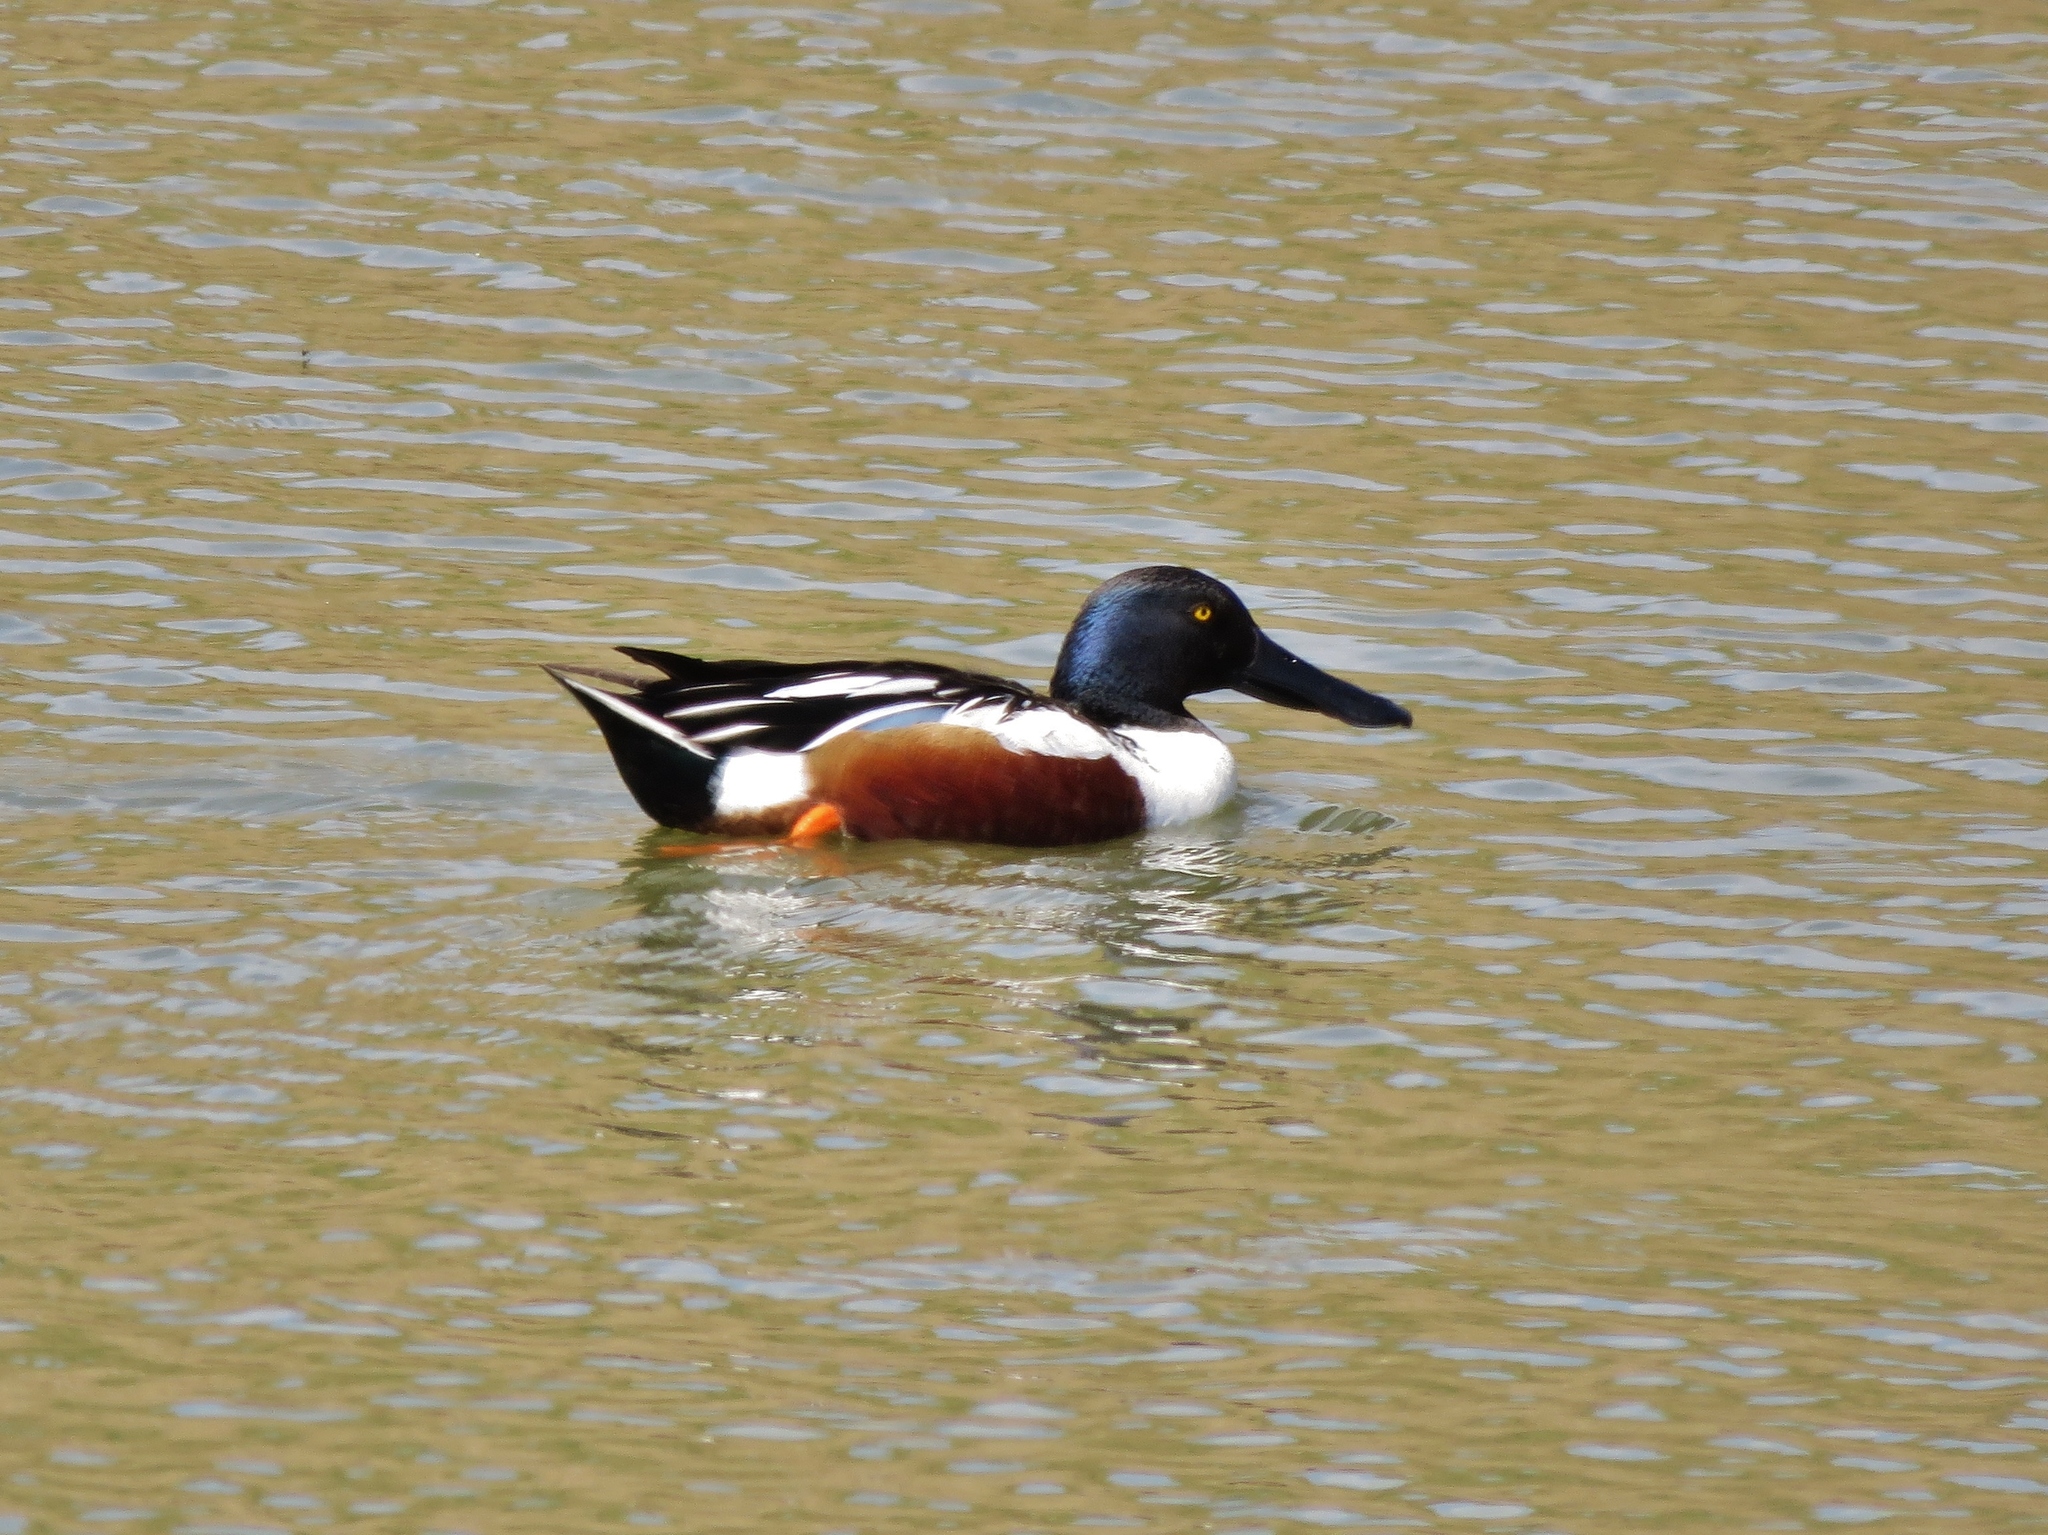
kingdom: Animalia
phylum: Chordata
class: Aves
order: Anseriformes
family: Anatidae
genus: Spatula
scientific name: Spatula clypeata
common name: Northern shoveler
